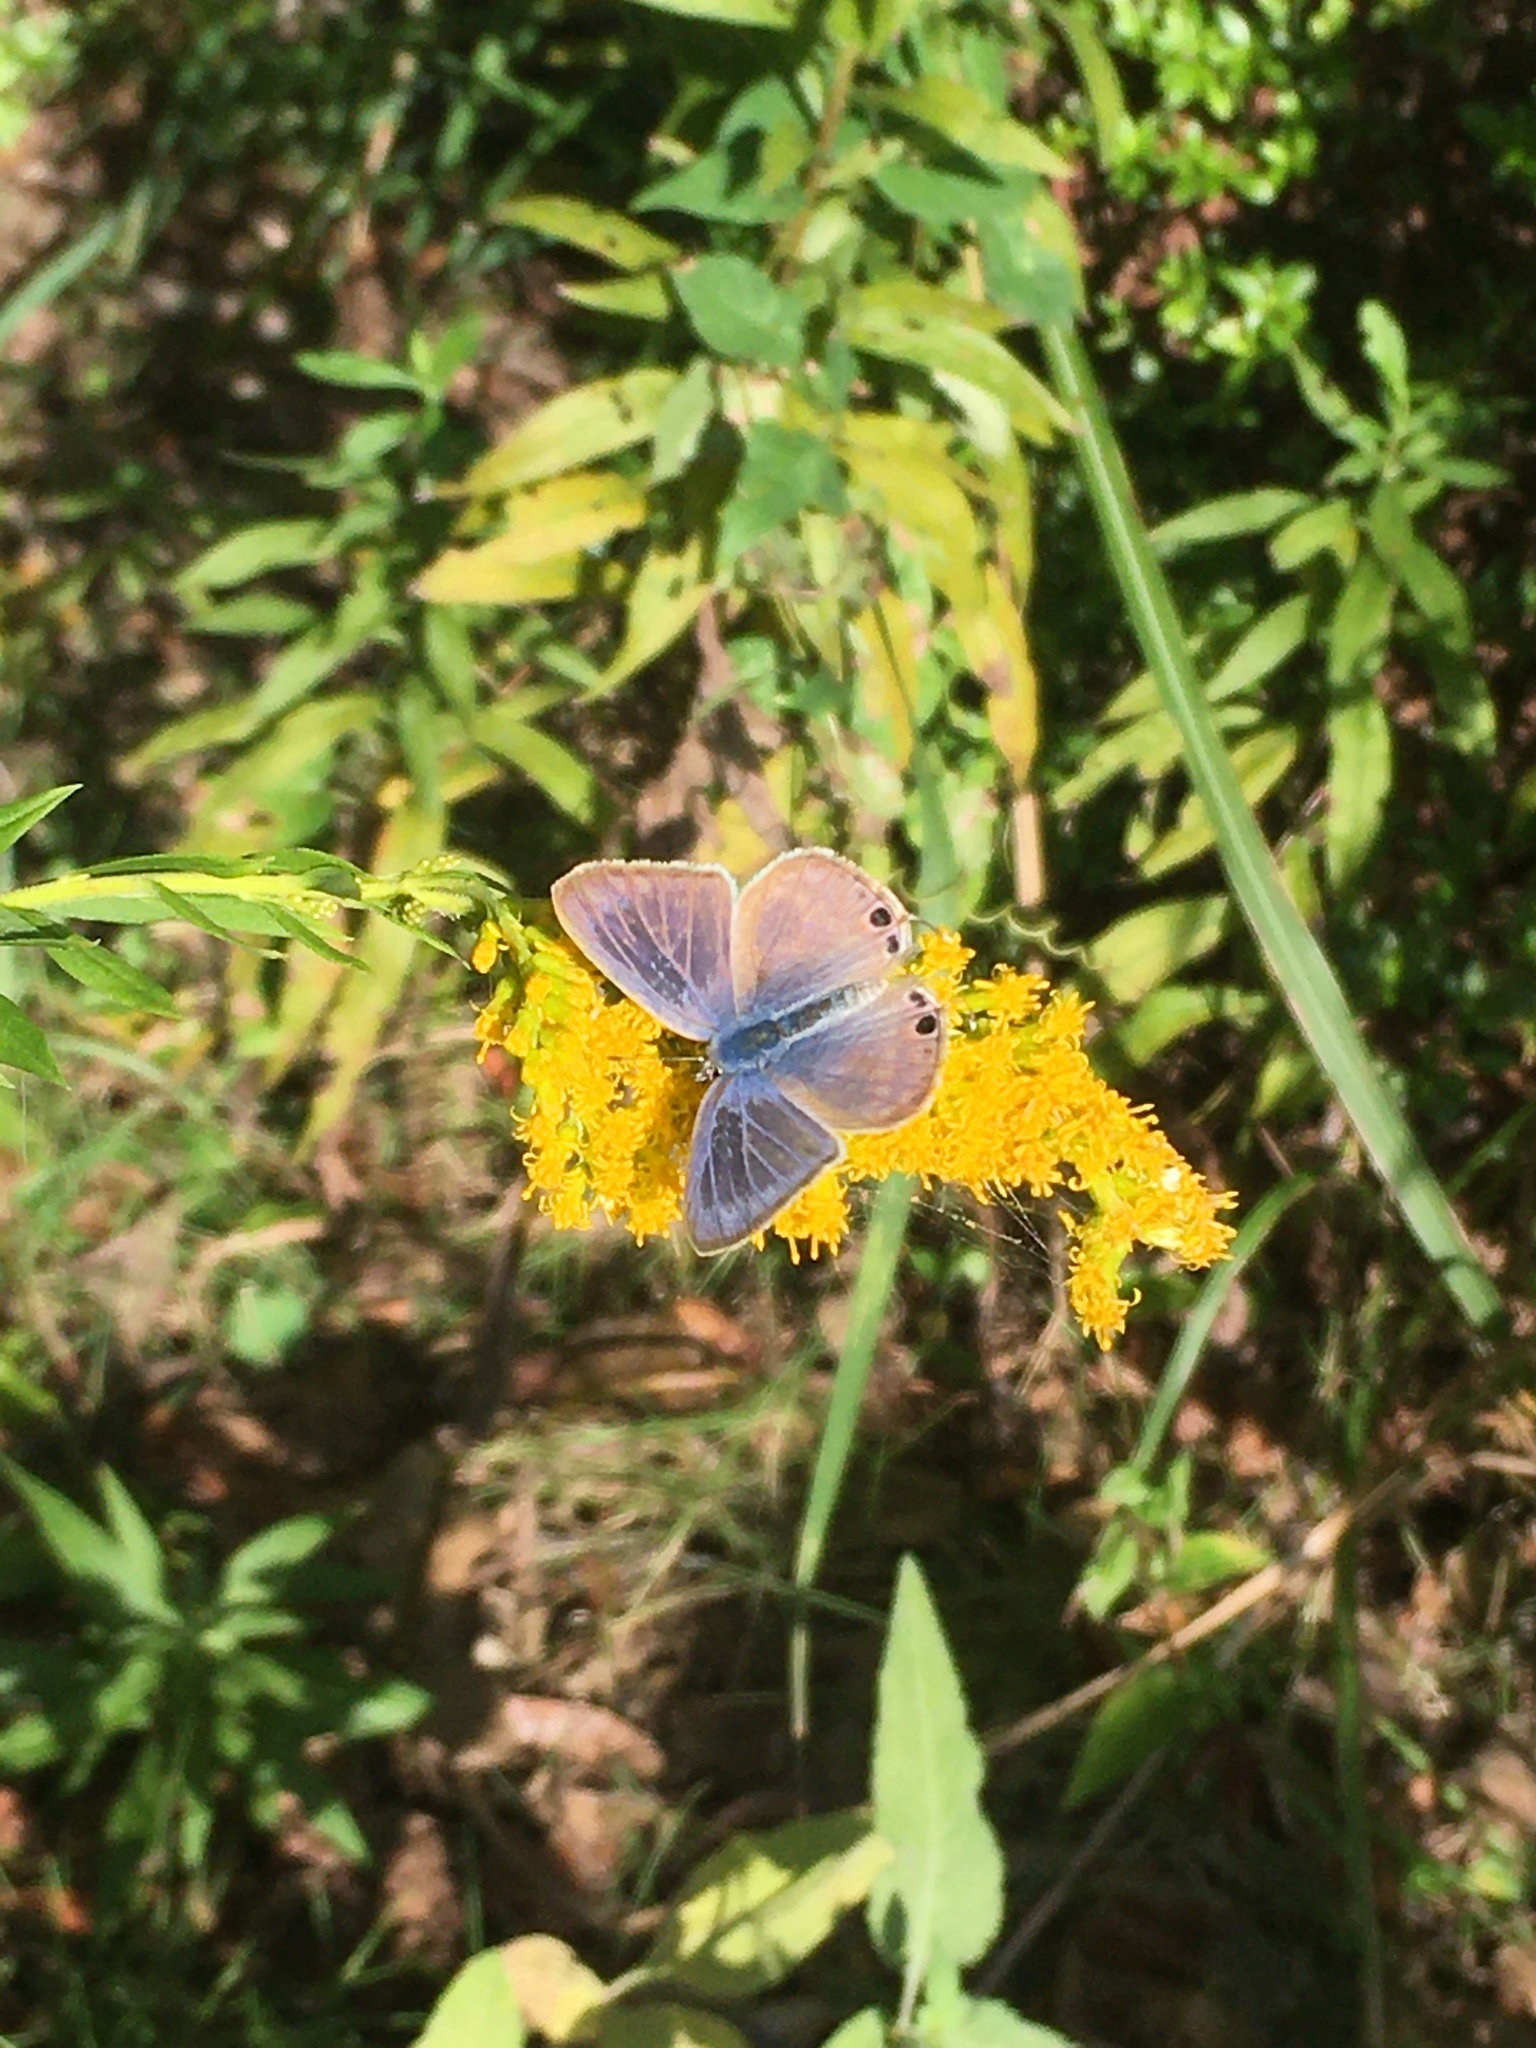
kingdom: Animalia
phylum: Arthropoda
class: Insecta
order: Lepidoptera
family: Lycaenidae
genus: Lampides
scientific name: Lampides boeticus
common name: Long-tailed blue
